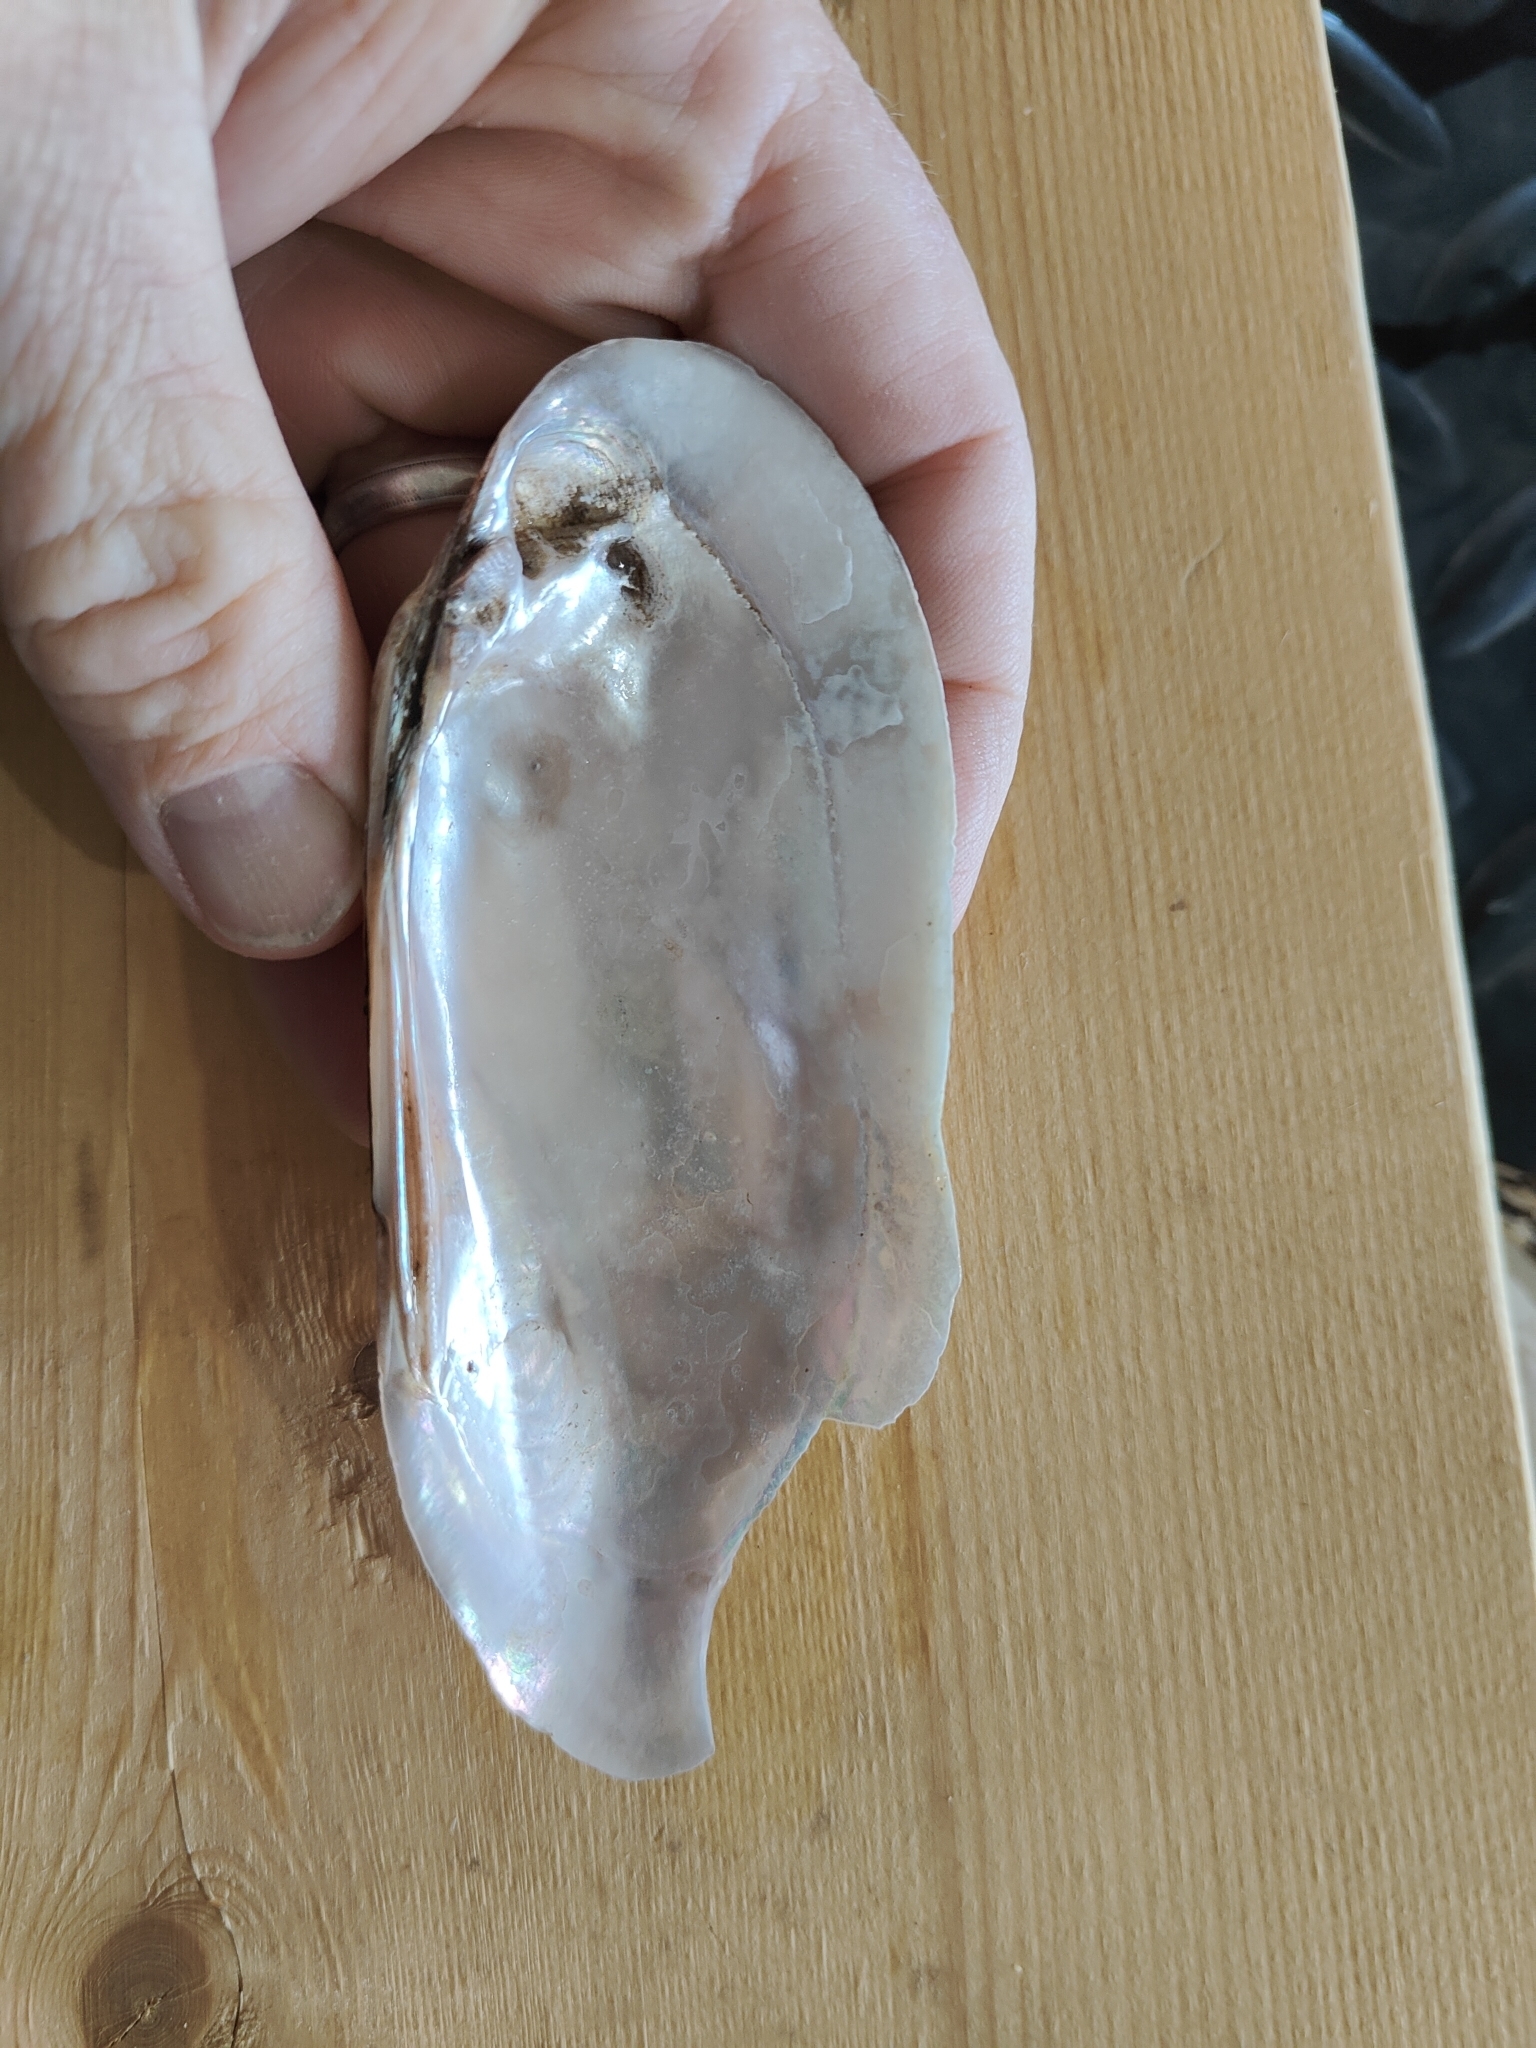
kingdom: Animalia
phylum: Mollusca
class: Bivalvia
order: Unionida
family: Unionidae
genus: Ligumia
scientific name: Ligumia recta
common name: Black sandshell
